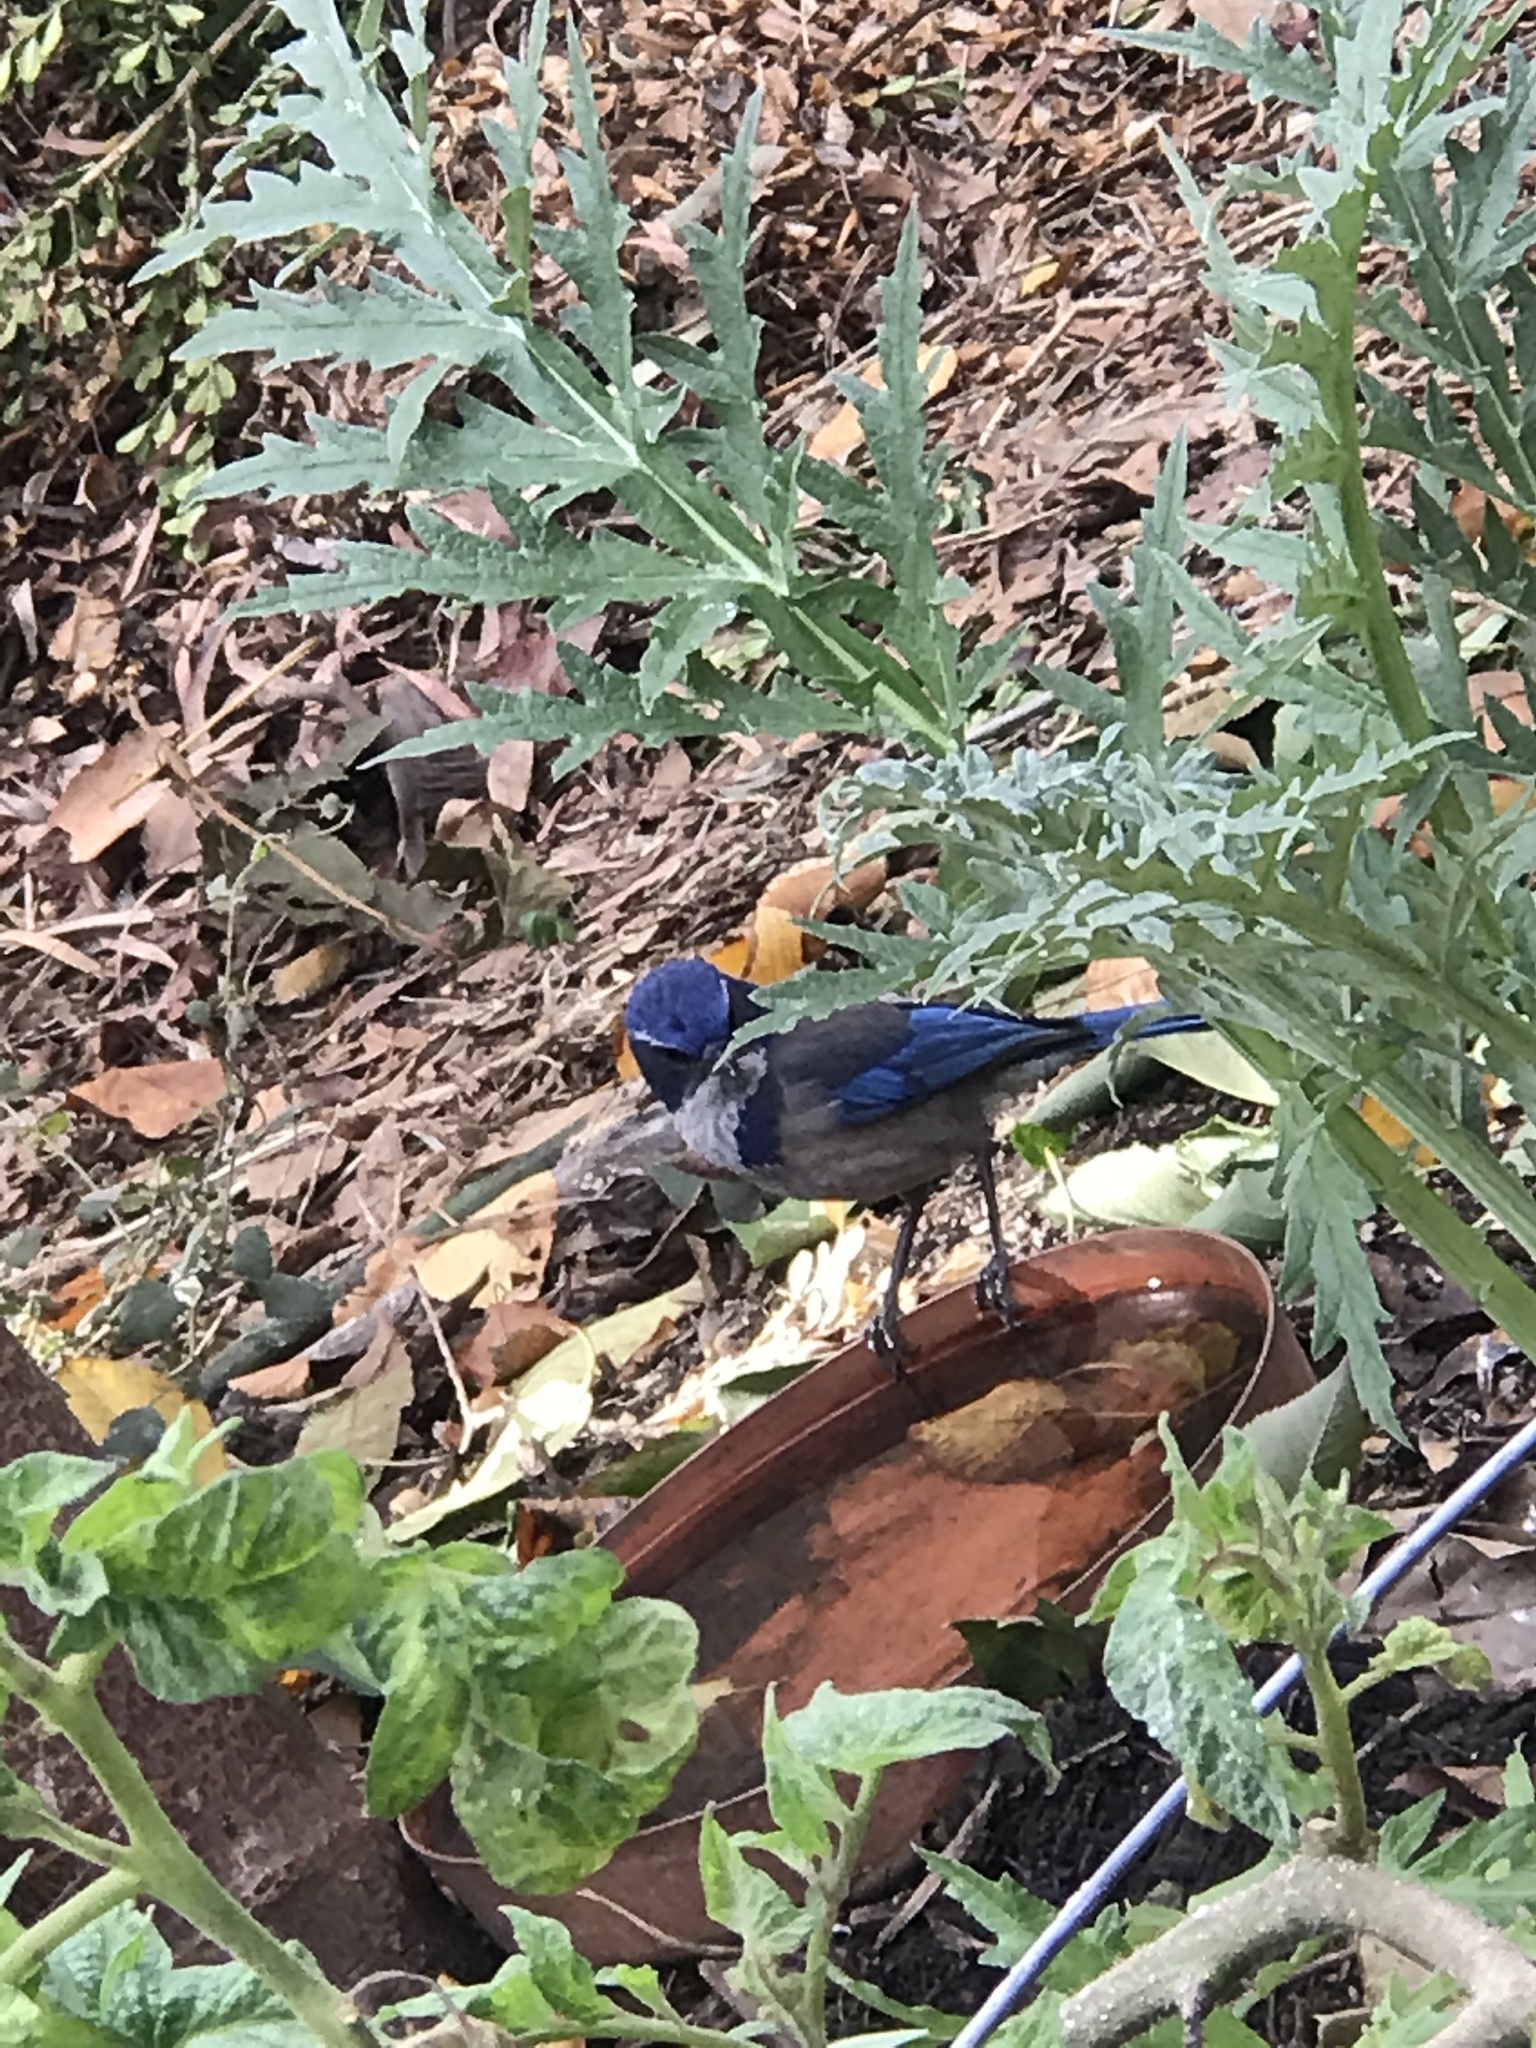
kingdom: Animalia
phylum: Chordata
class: Aves
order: Passeriformes
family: Corvidae
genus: Aphelocoma
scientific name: Aphelocoma californica
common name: California scrub-jay
